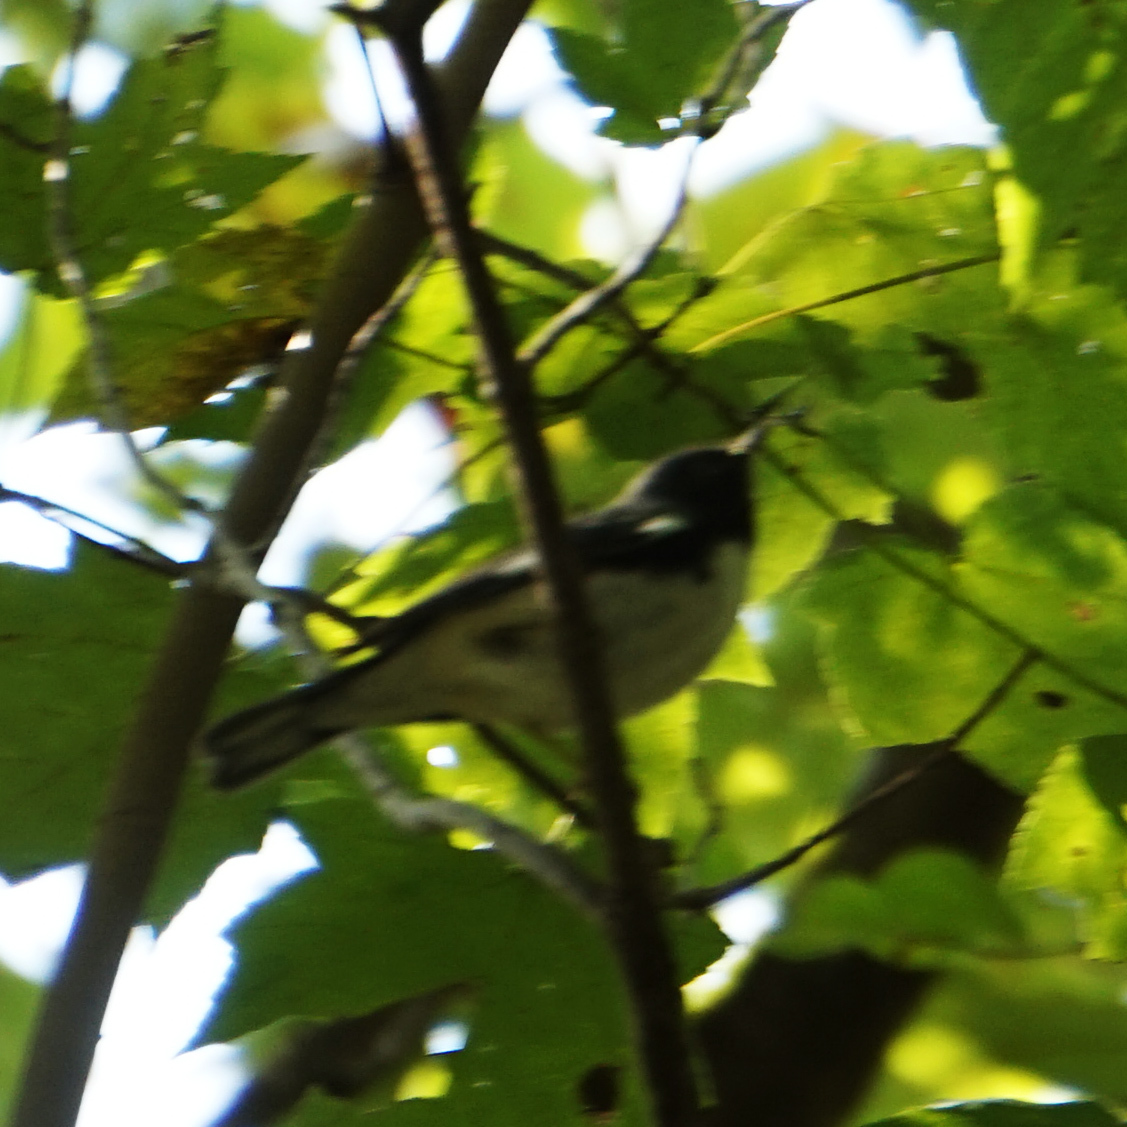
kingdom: Animalia
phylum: Chordata
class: Aves
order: Passeriformes
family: Parulidae
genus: Setophaga
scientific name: Setophaga caerulescens
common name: Black-throated blue warbler
